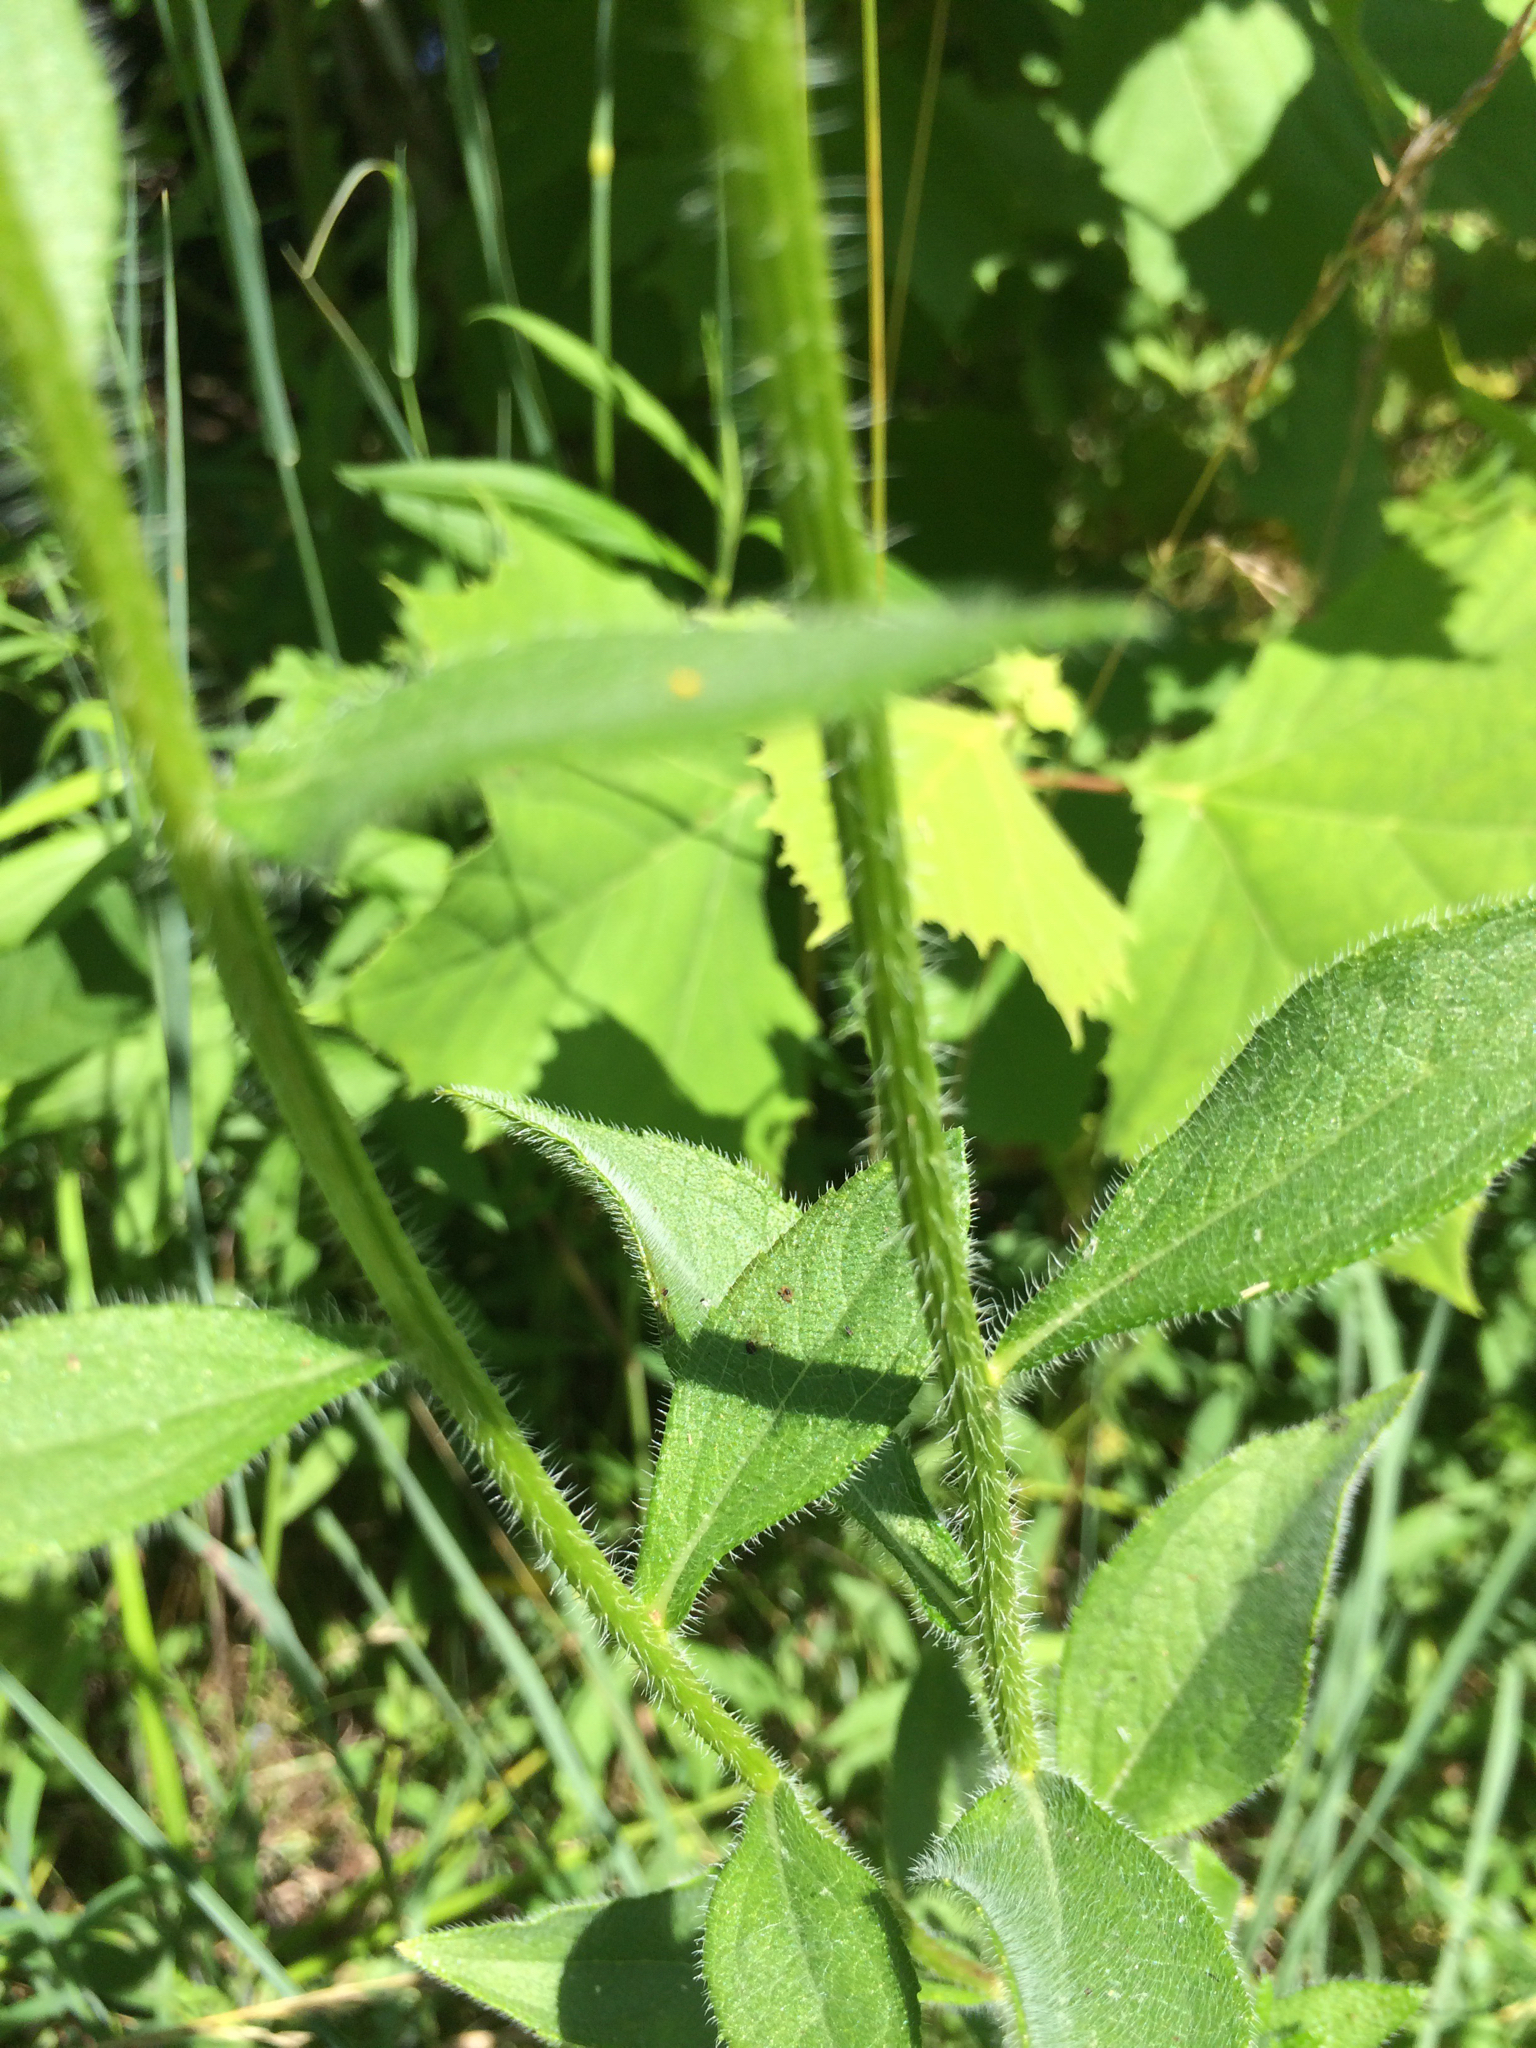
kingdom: Plantae
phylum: Tracheophyta
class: Magnoliopsida
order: Asterales
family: Asteraceae
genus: Rudbeckia
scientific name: Rudbeckia hirta
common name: Black-eyed-susan
